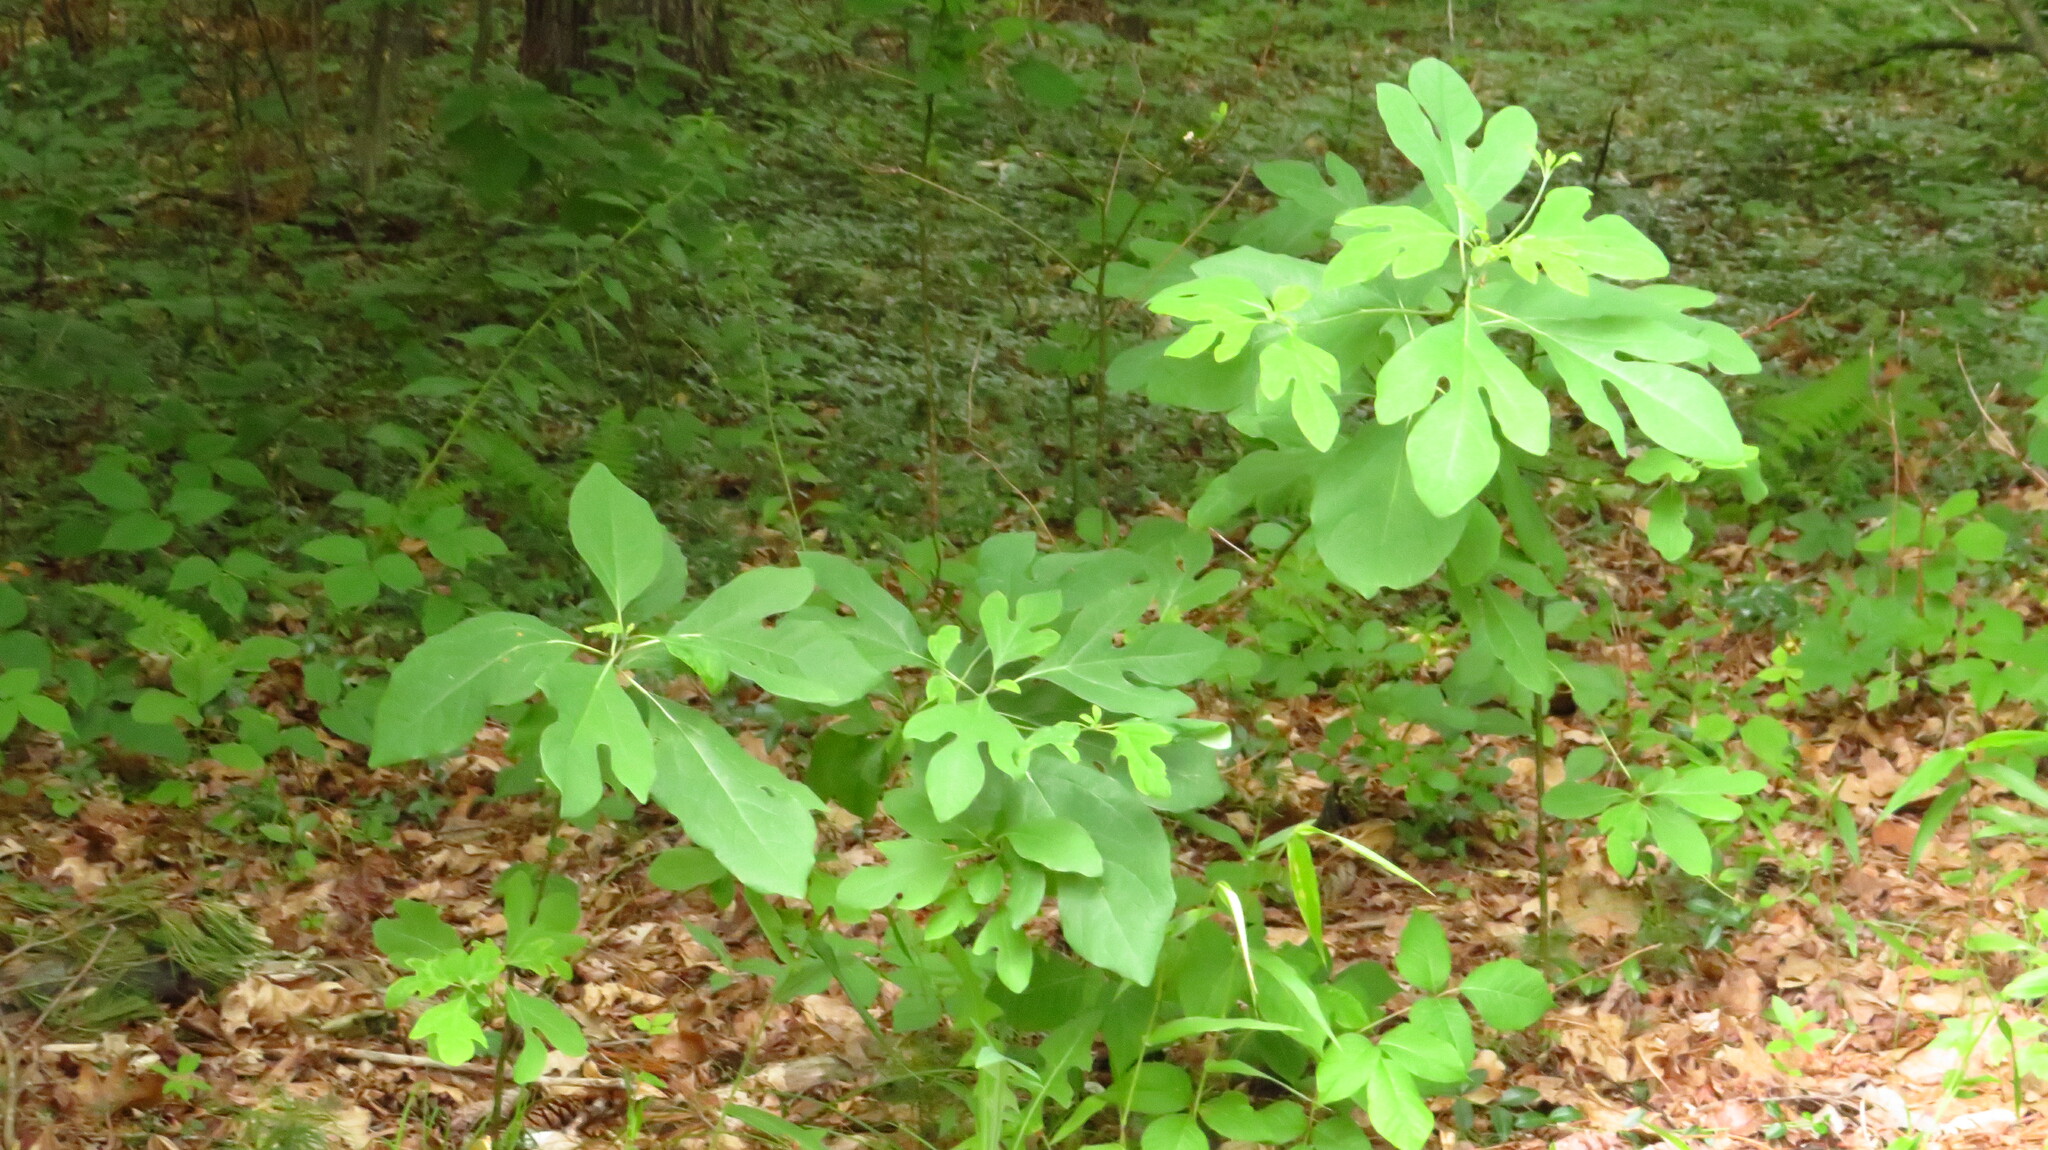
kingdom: Plantae
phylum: Tracheophyta
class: Magnoliopsida
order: Laurales
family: Lauraceae
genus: Sassafras
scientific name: Sassafras albidum
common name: Sassafras
